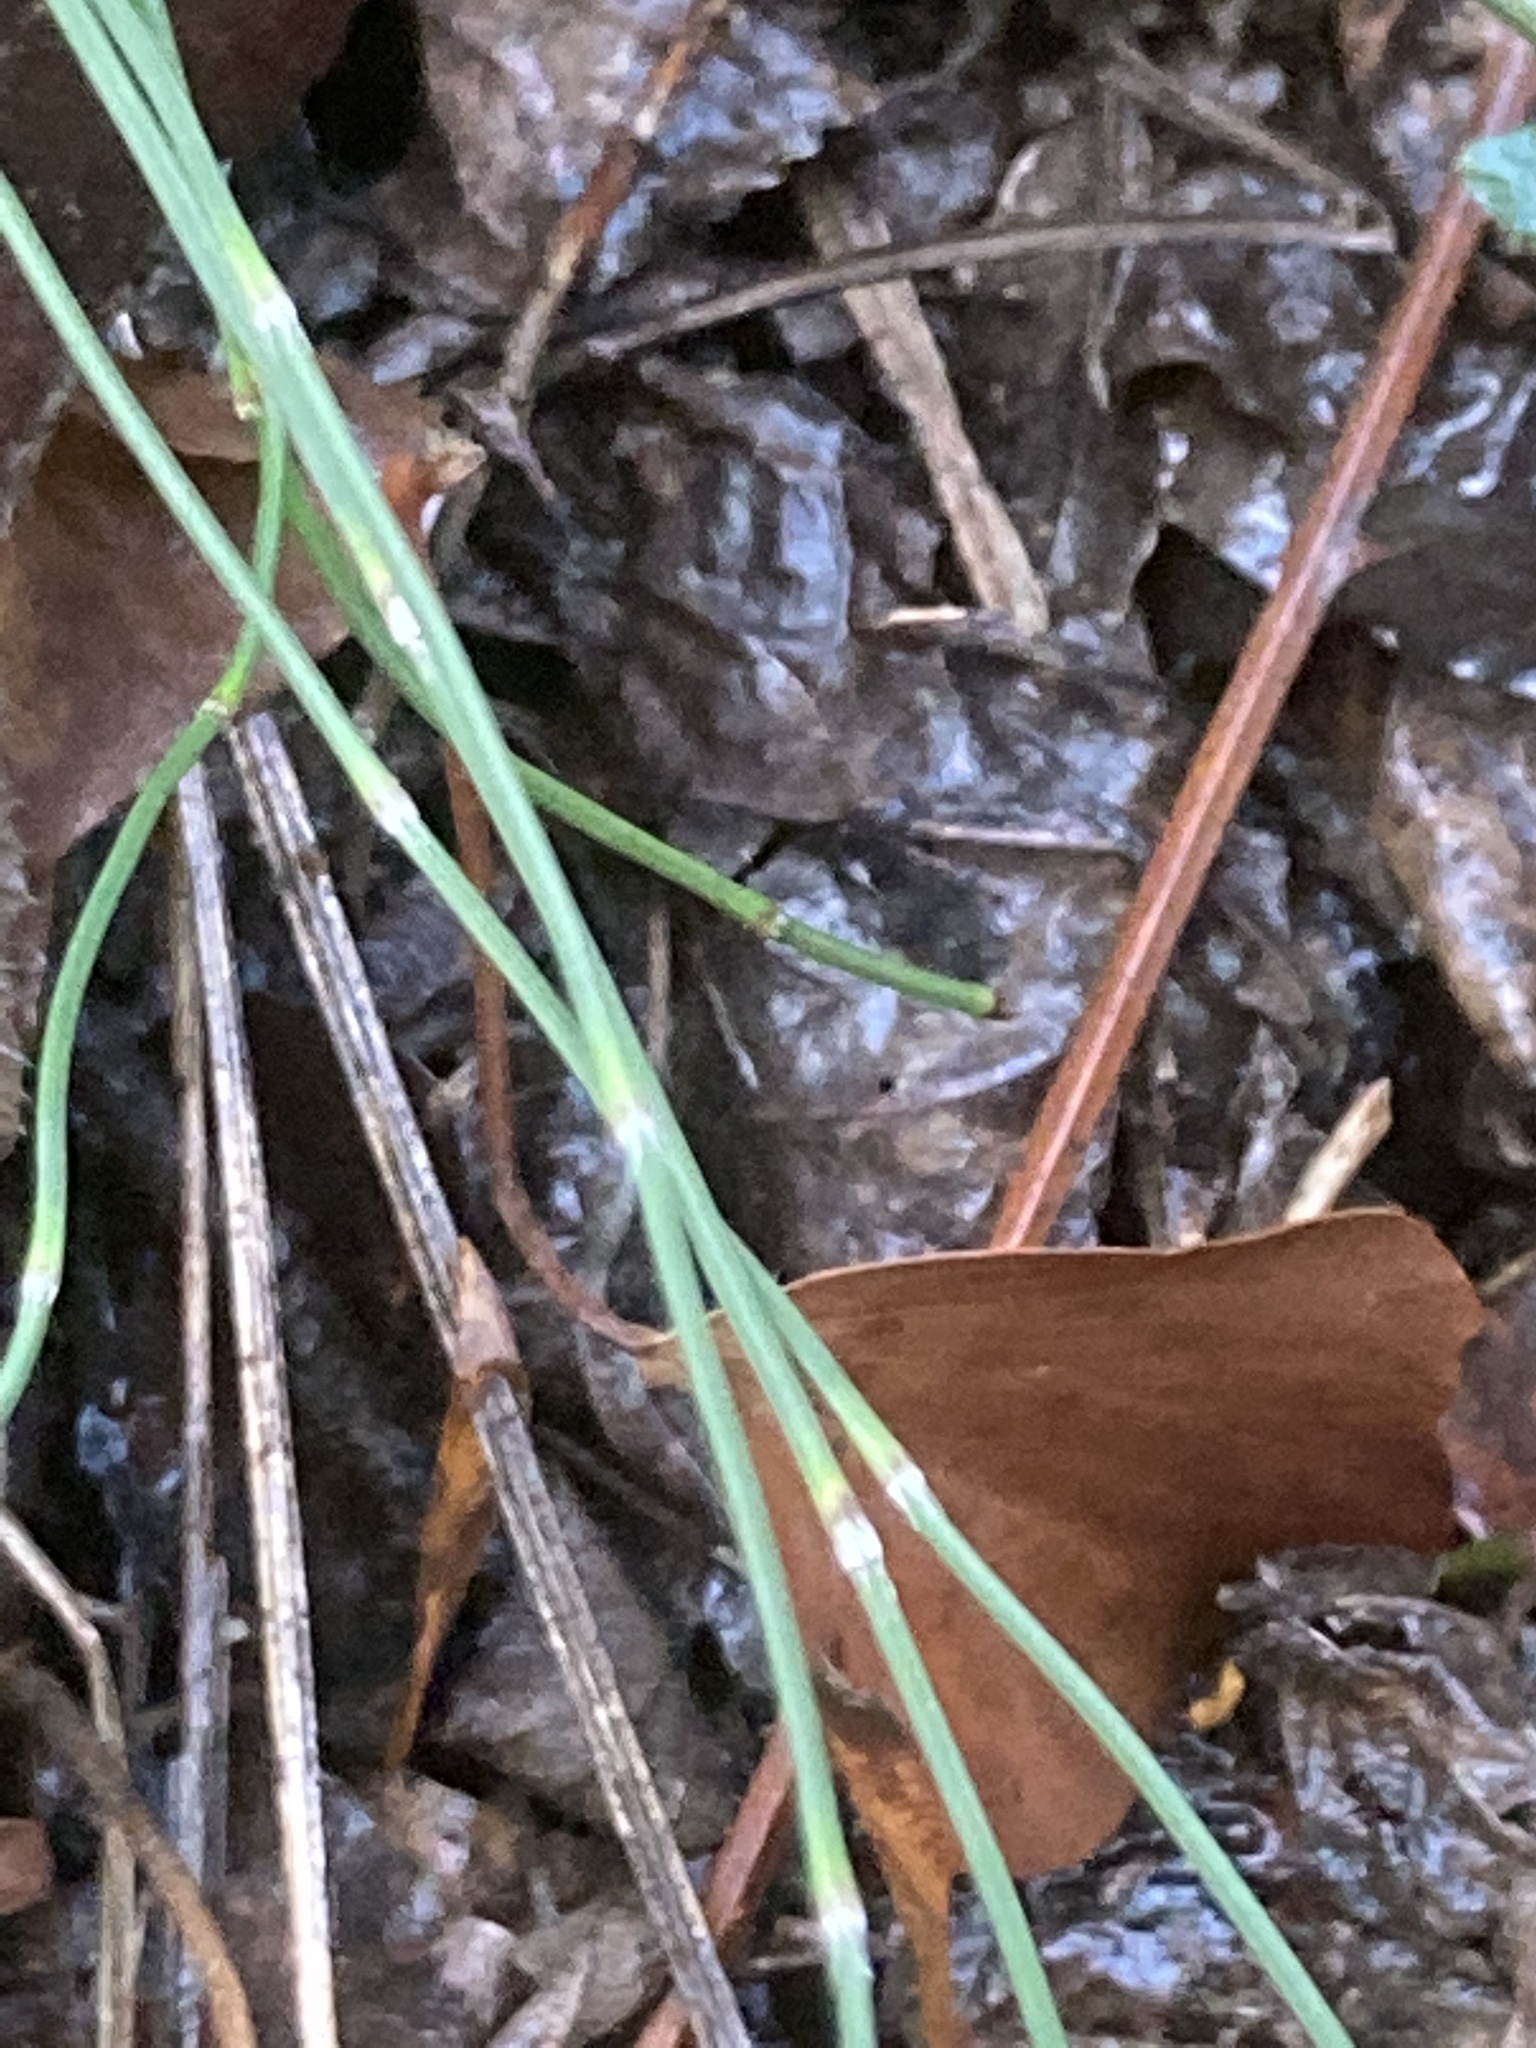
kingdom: Plantae
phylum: Tracheophyta
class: Polypodiopsida
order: Equisetales
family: Equisetaceae
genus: Equisetum
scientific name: Equisetum ramosissimum
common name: Branched horsetail
